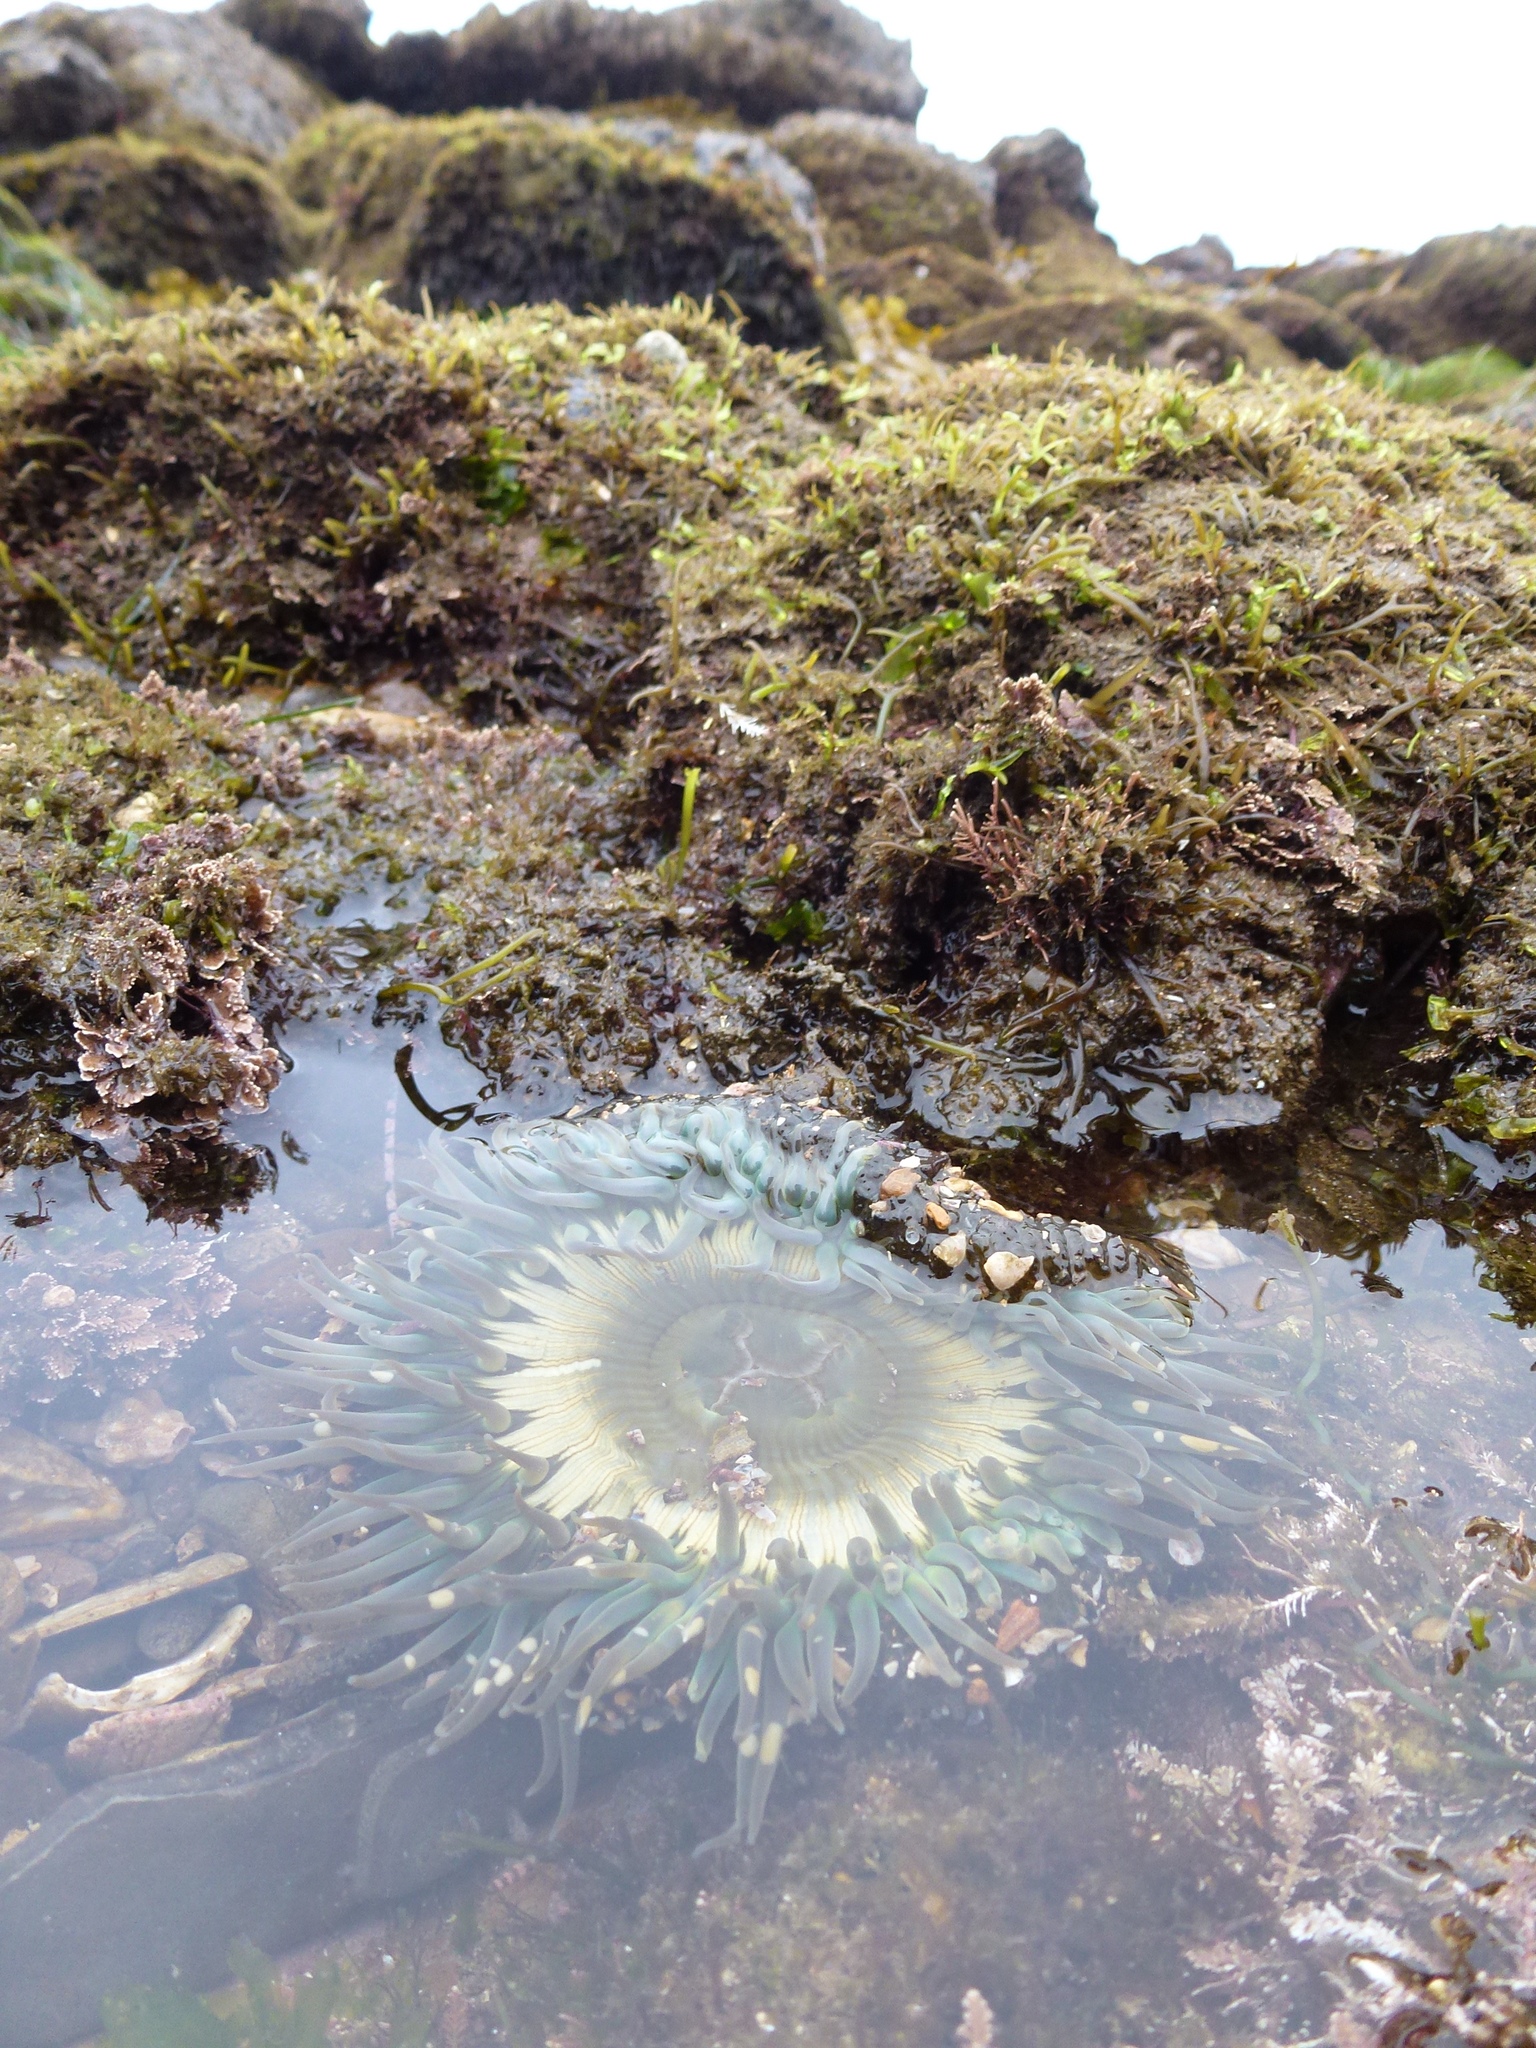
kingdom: Animalia
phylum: Cnidaria
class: Anthozoa
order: Actiniaria
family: Actiniidae
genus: Anthopleura
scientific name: Anthopleura sola
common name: Sun anemone
